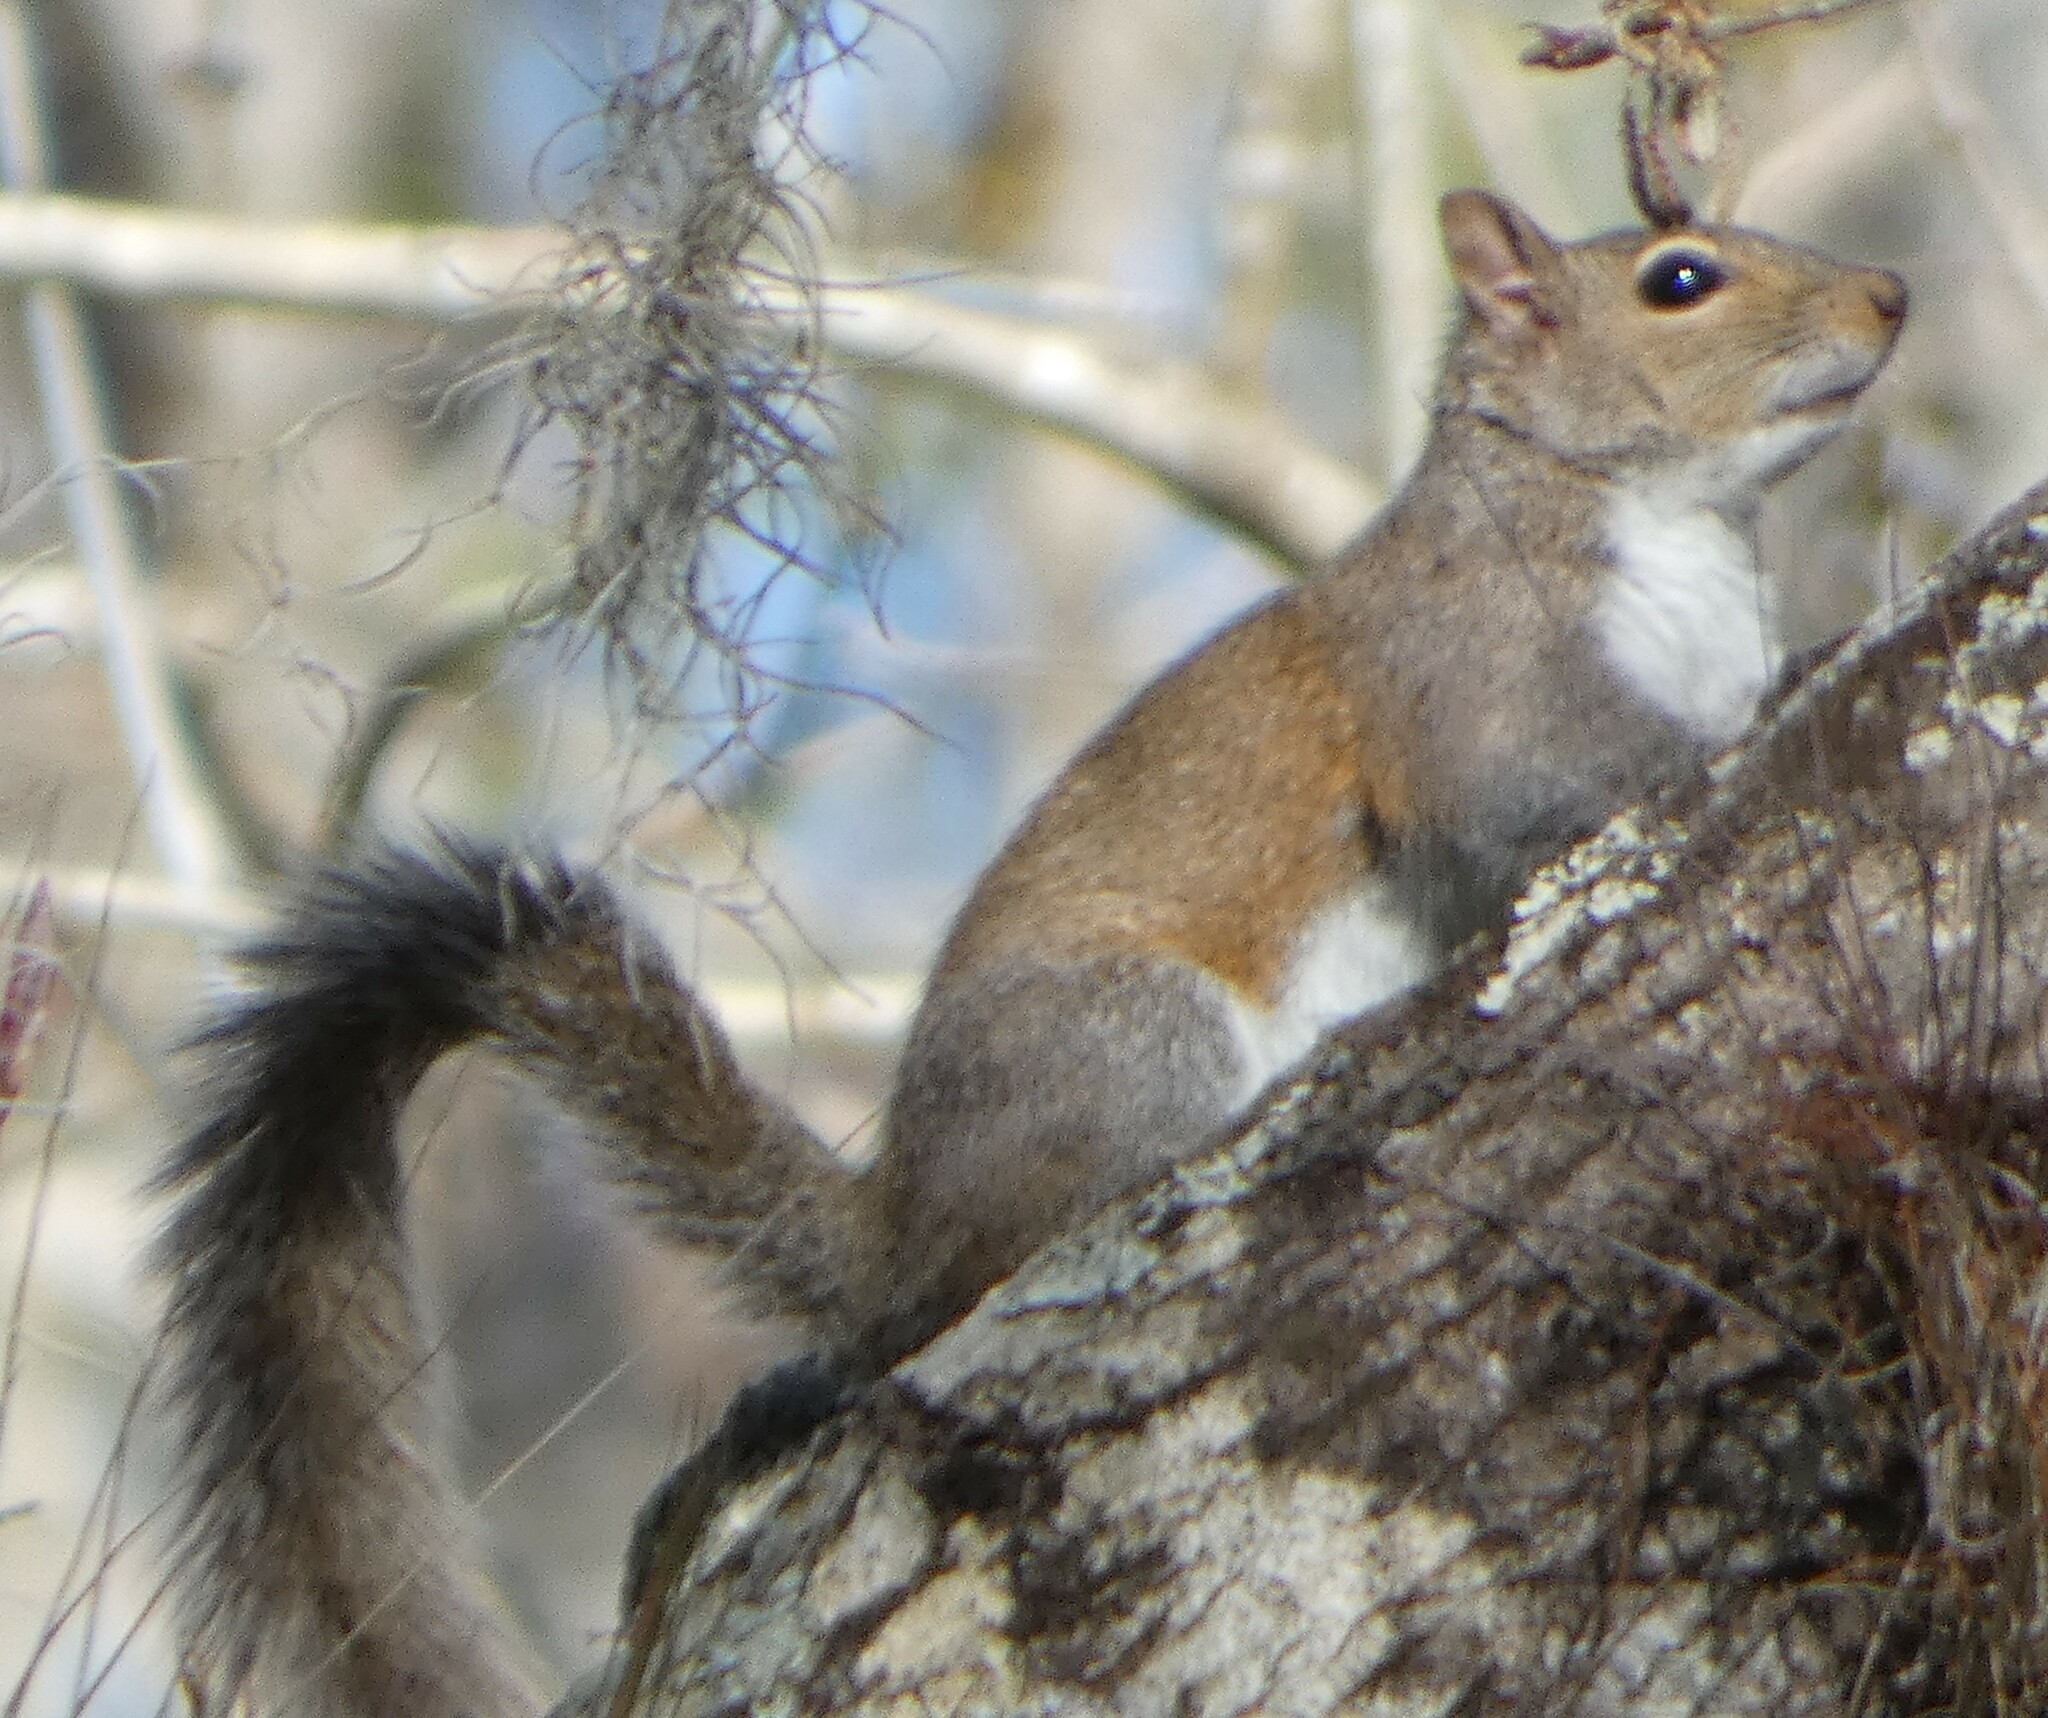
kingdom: Animalia
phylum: Chordata
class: Mammalia
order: Rodentia
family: Sciuridae
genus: Sciurus
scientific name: Sciurus carolinensis
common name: Eastern gray squirrel
